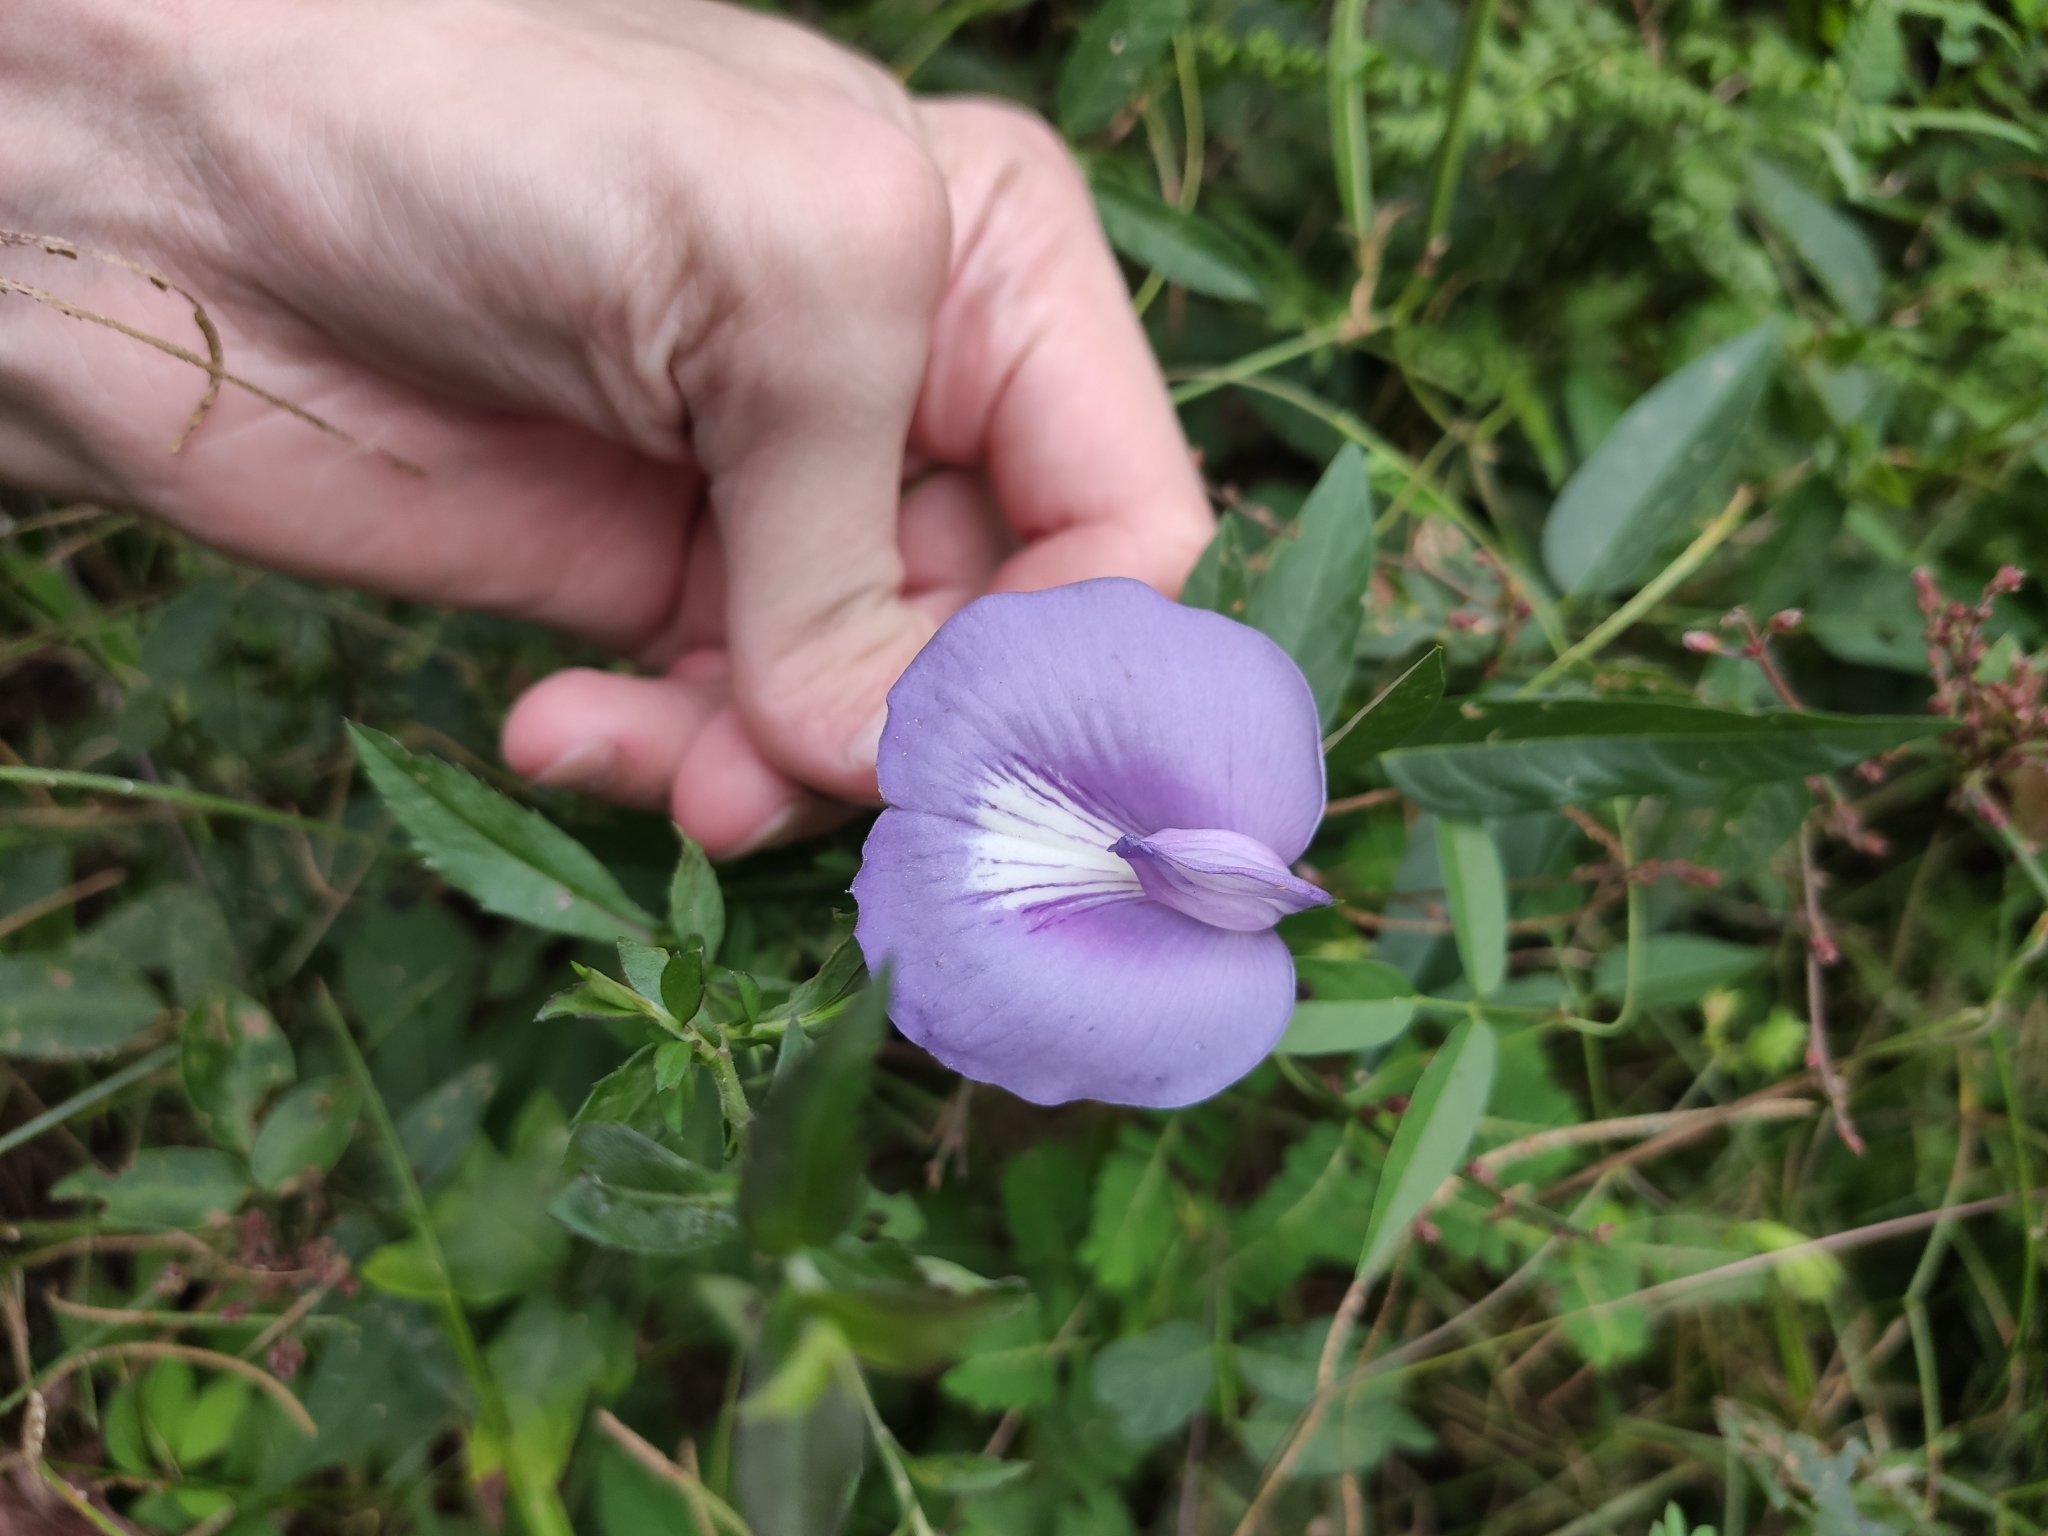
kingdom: Plantae
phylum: Tracheophyta
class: Magnoliopsida
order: Fabales
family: Fabaceae
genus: Centrosema
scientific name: Centrosema virginianum
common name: Butterfly-pea
